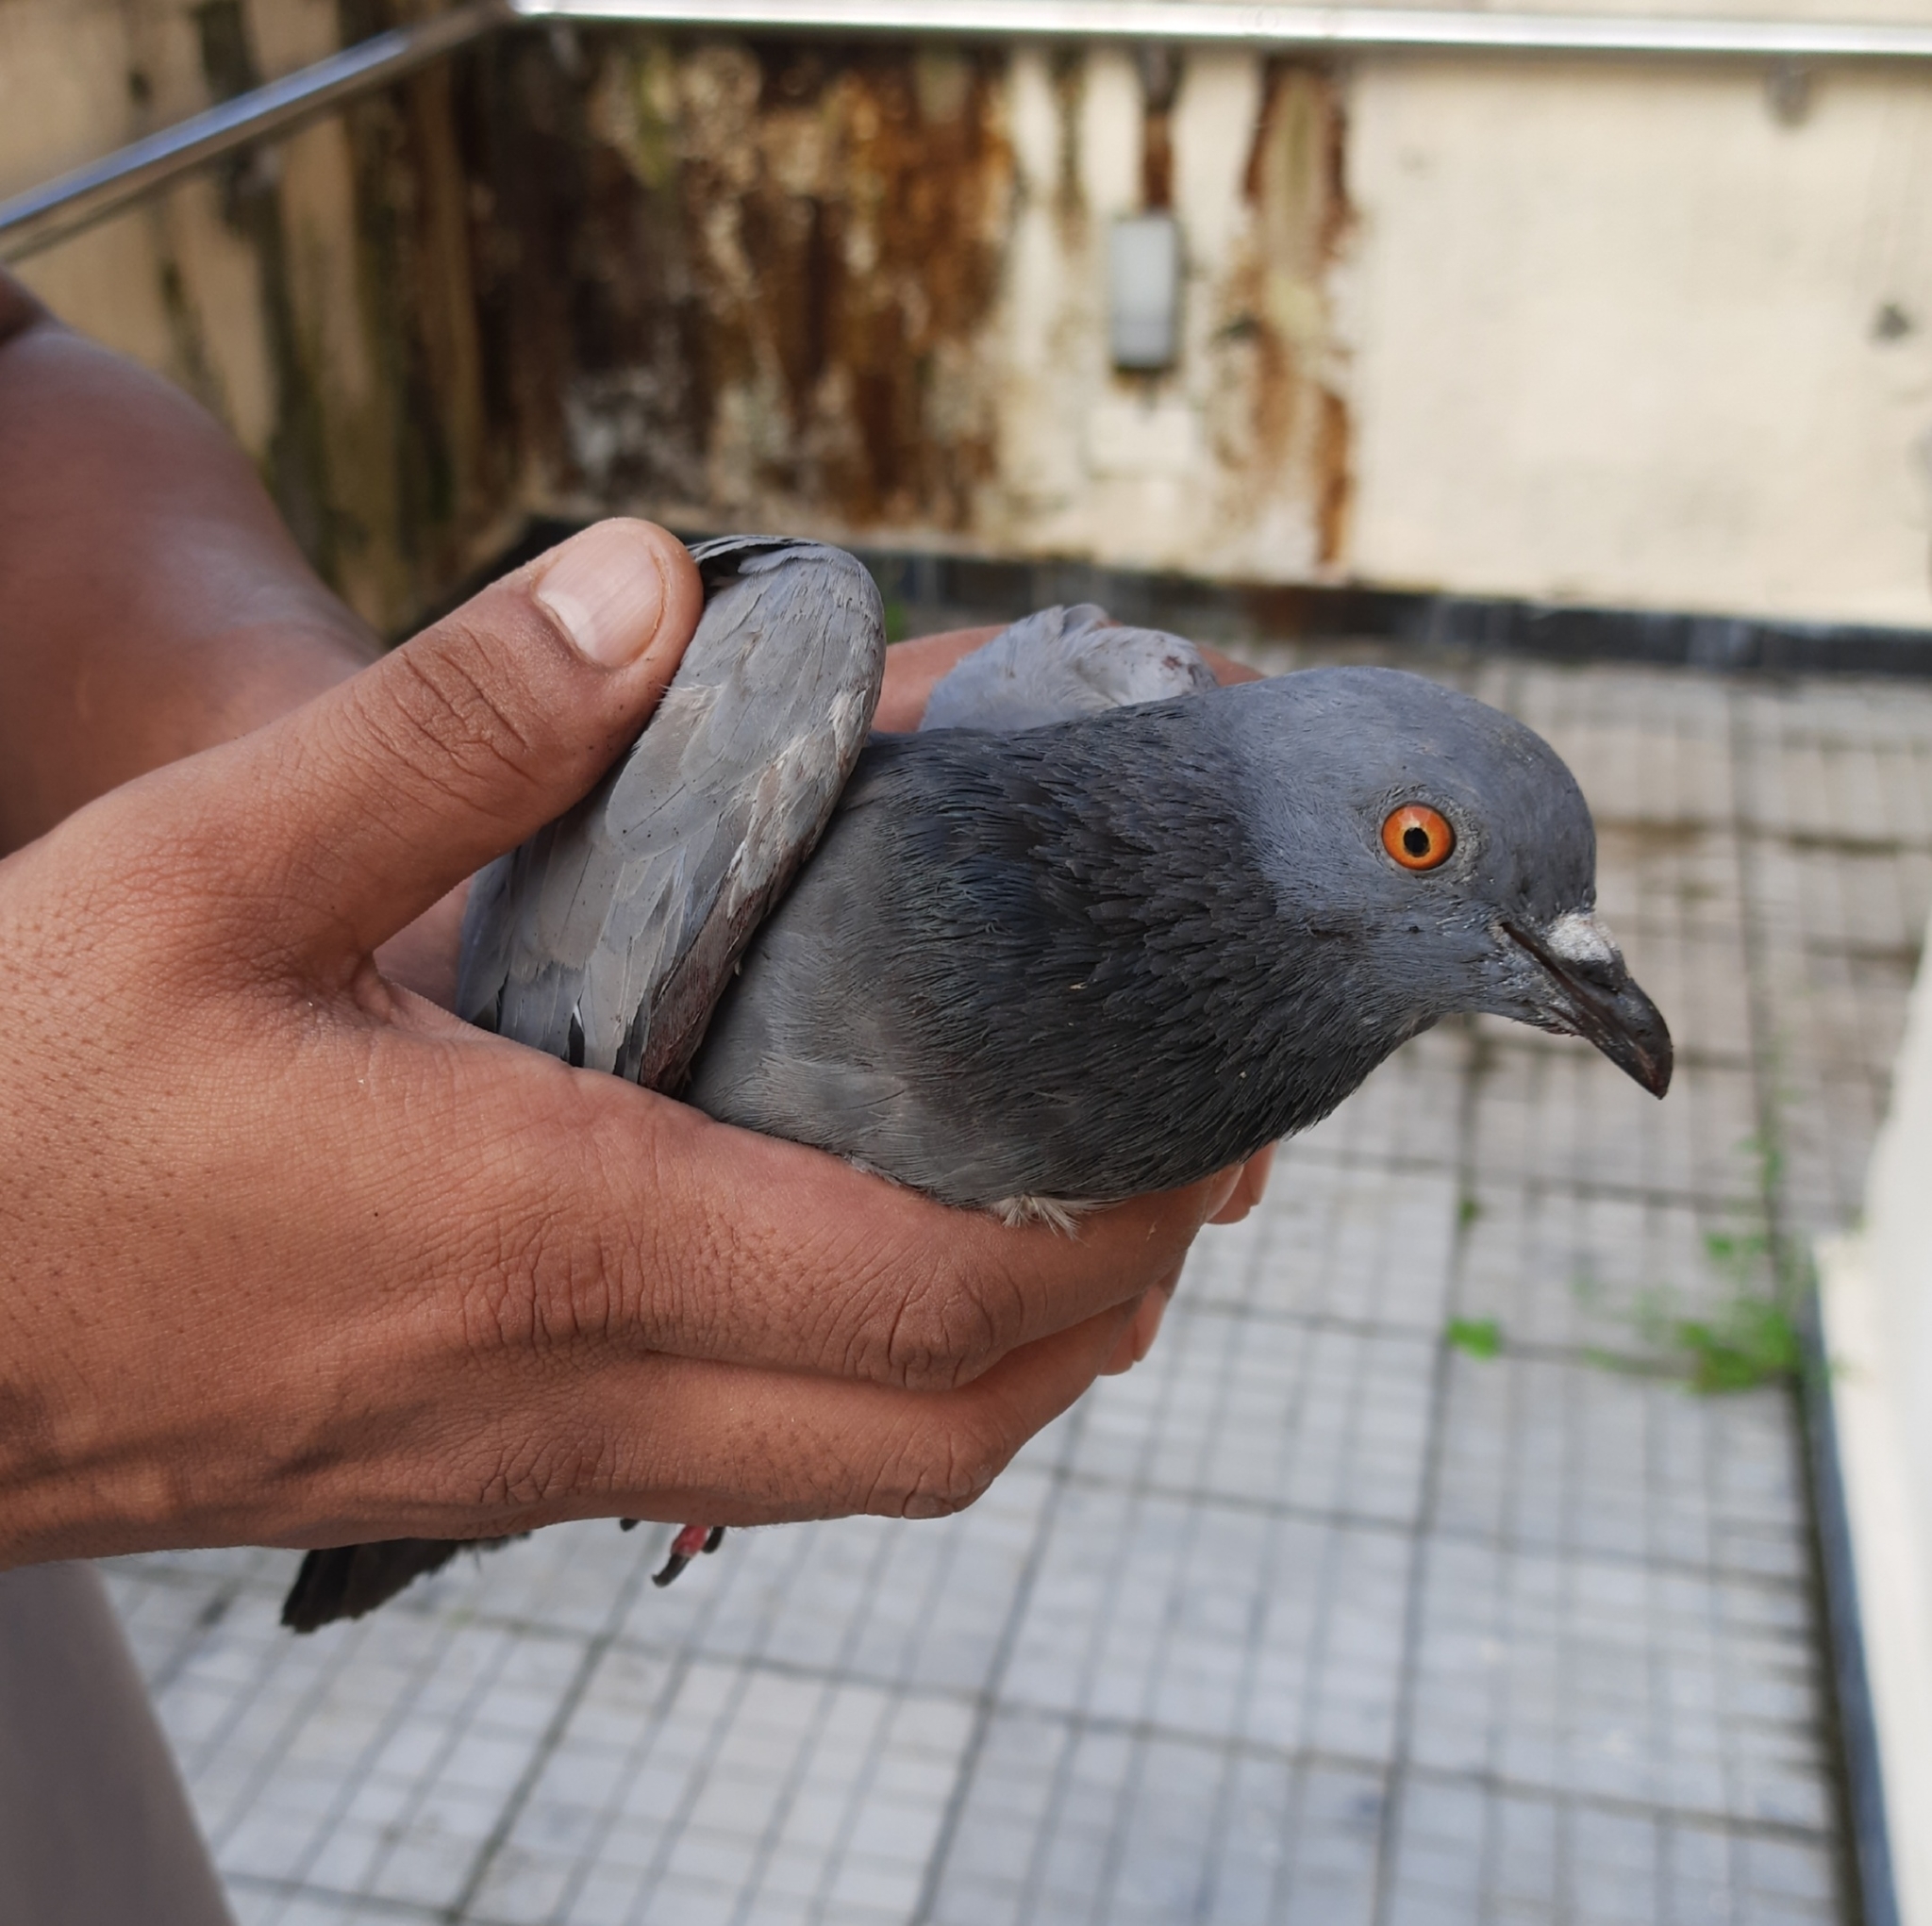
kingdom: Animalia
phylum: Chordata
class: Aves
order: Columbiformes
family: Columbidae
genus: Columba
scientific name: Columba livia
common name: Rock pigeon
